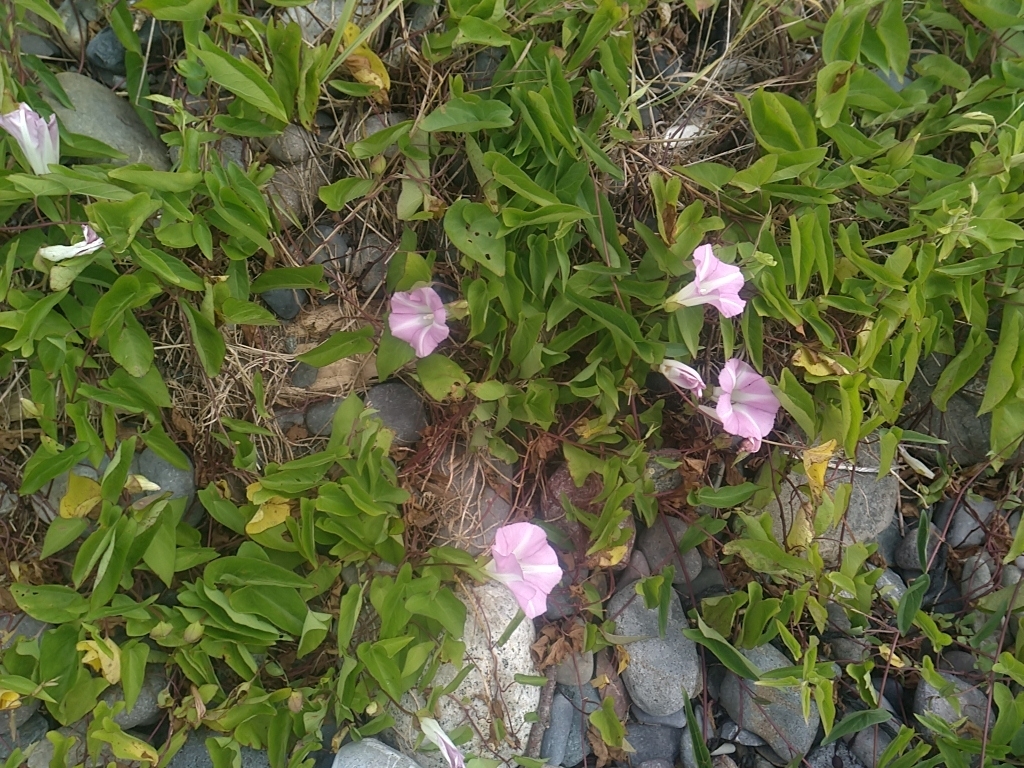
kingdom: Plantae
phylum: Tracheophyta
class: Magnoliopsida
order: Solanales
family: Convolvulaceae
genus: Calystegia
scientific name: Calystegia sepium
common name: Hedge bindweed
